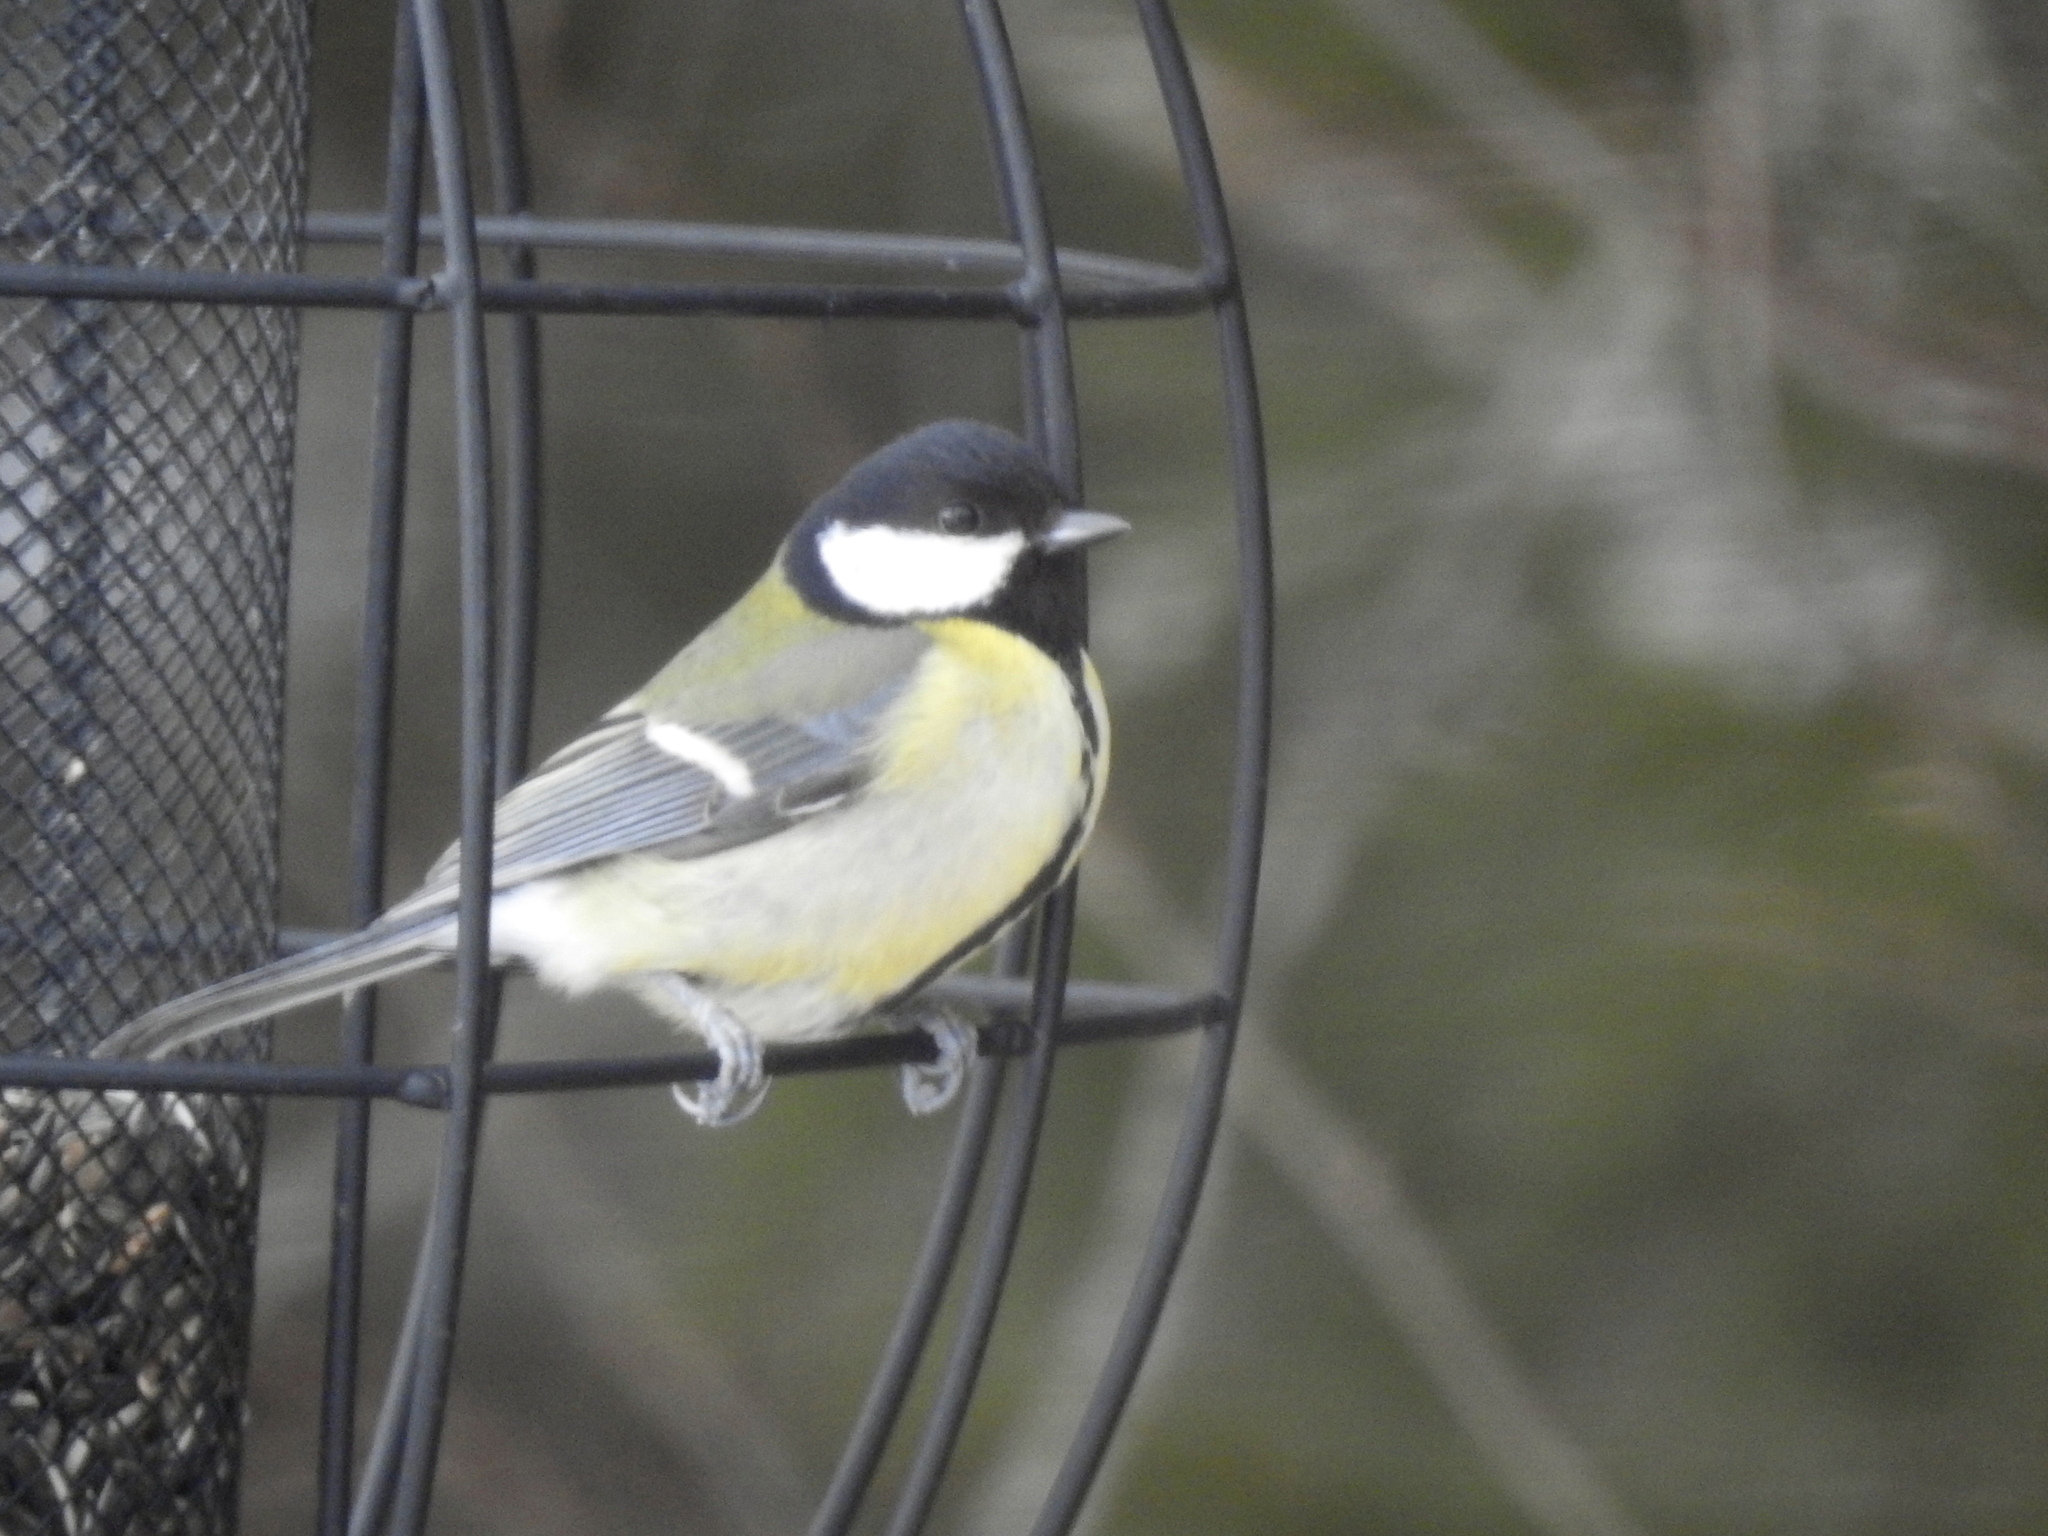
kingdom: Animalia
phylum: Chordata
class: Aves
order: Passeriformes
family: Paridae
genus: Parus
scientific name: Parus major
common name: Great tit
